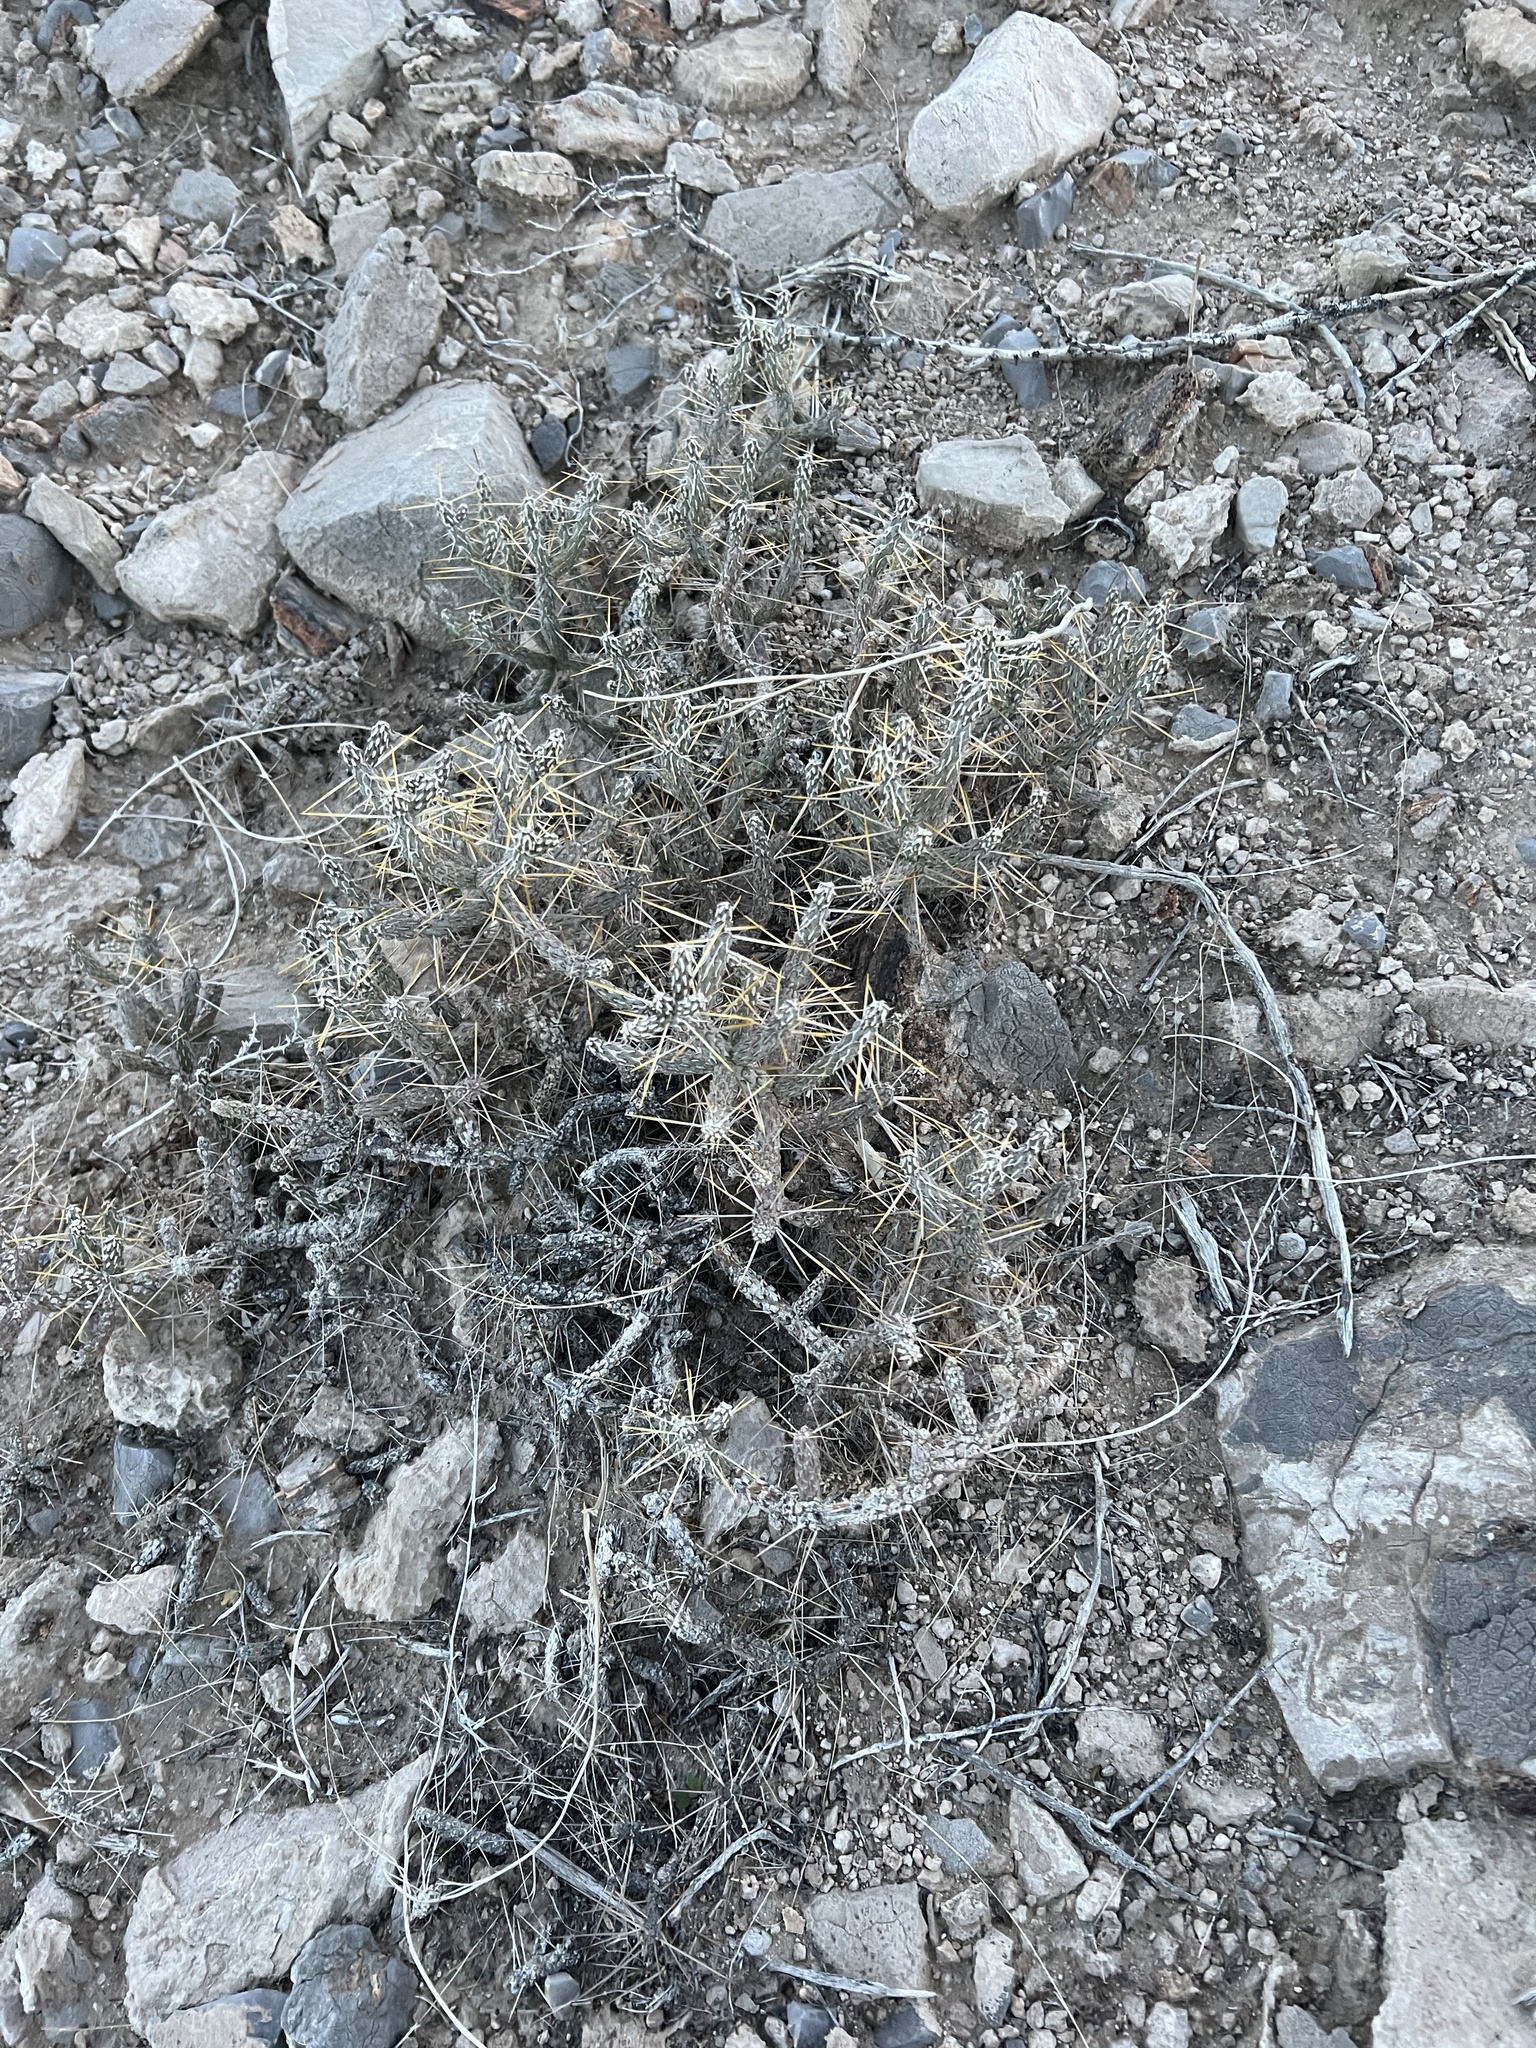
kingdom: Plantae
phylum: Tracheophyta
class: Magnoliopsida
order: Caryophyllales
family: Cactaceae
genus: Cylindropuntia
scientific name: Cylindropuntia ramosissima
